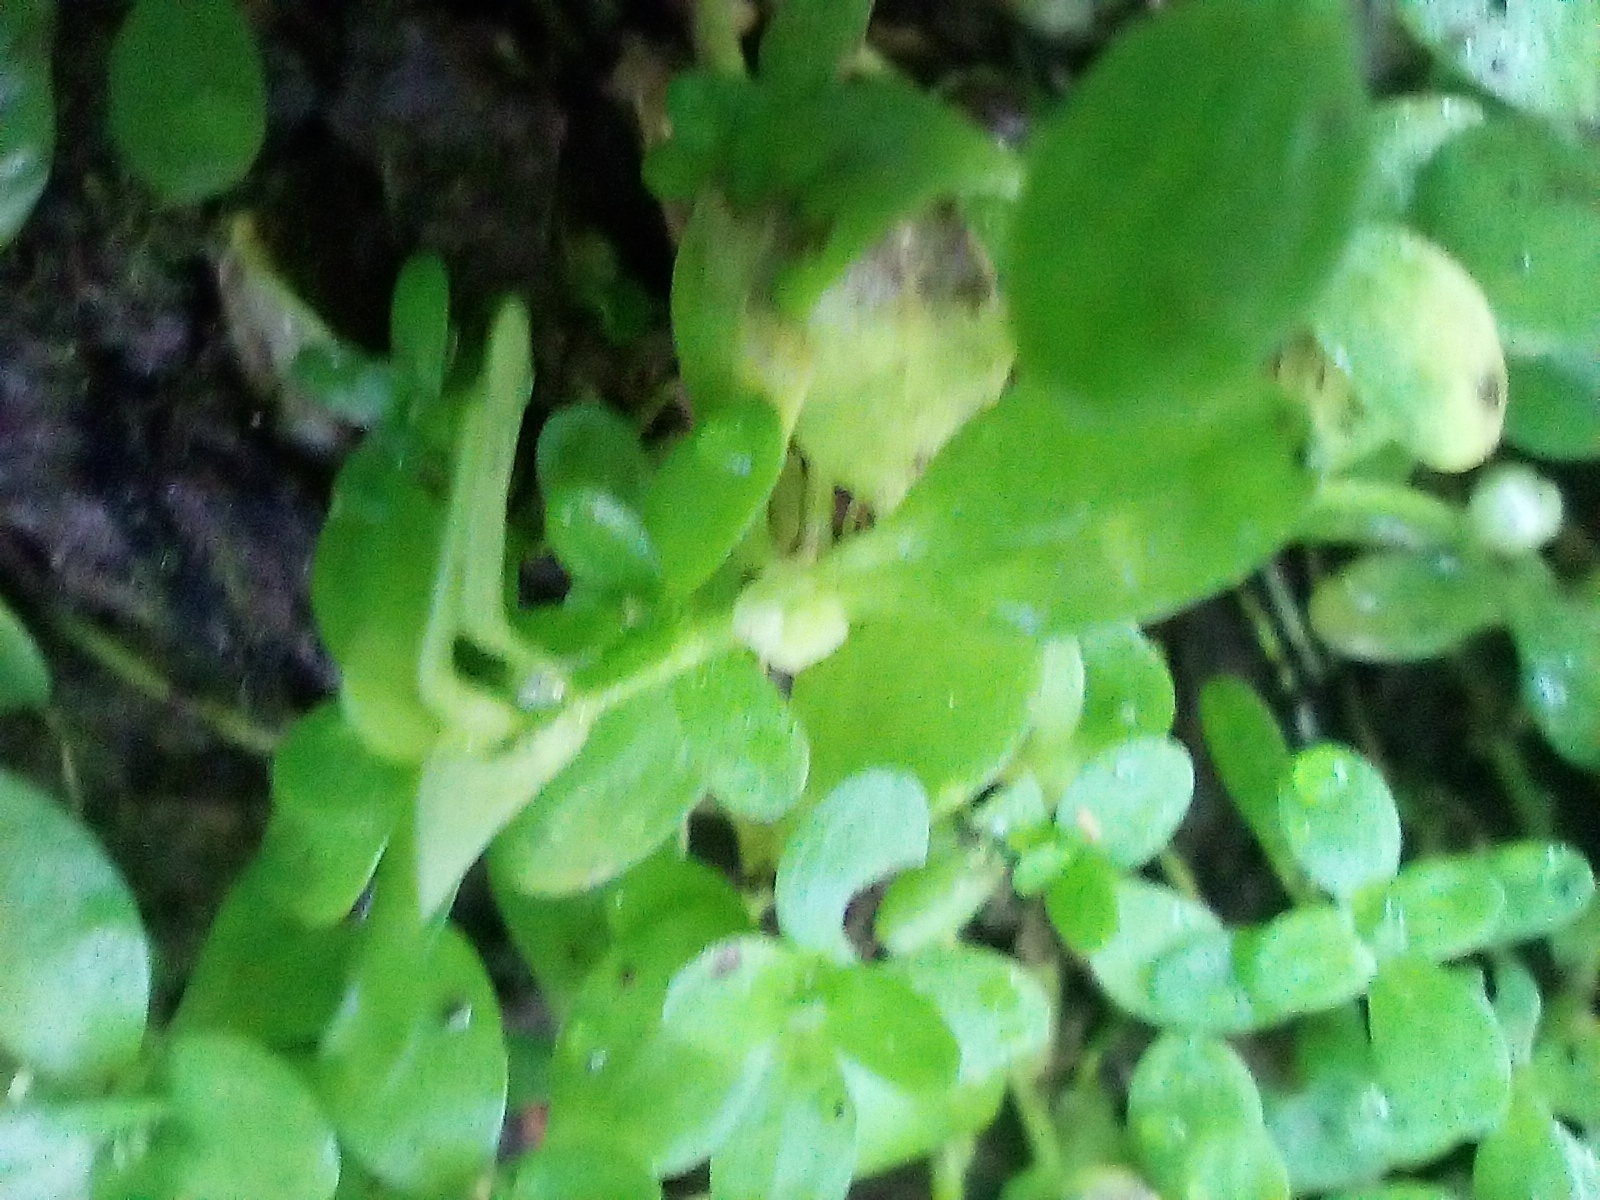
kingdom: Plantae
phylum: Tracheophyta
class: Magnoliopsida
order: Lamiales
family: Plantaginaceae
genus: Callitriche
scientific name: Callitriche stagnalis
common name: Common water-starwort
